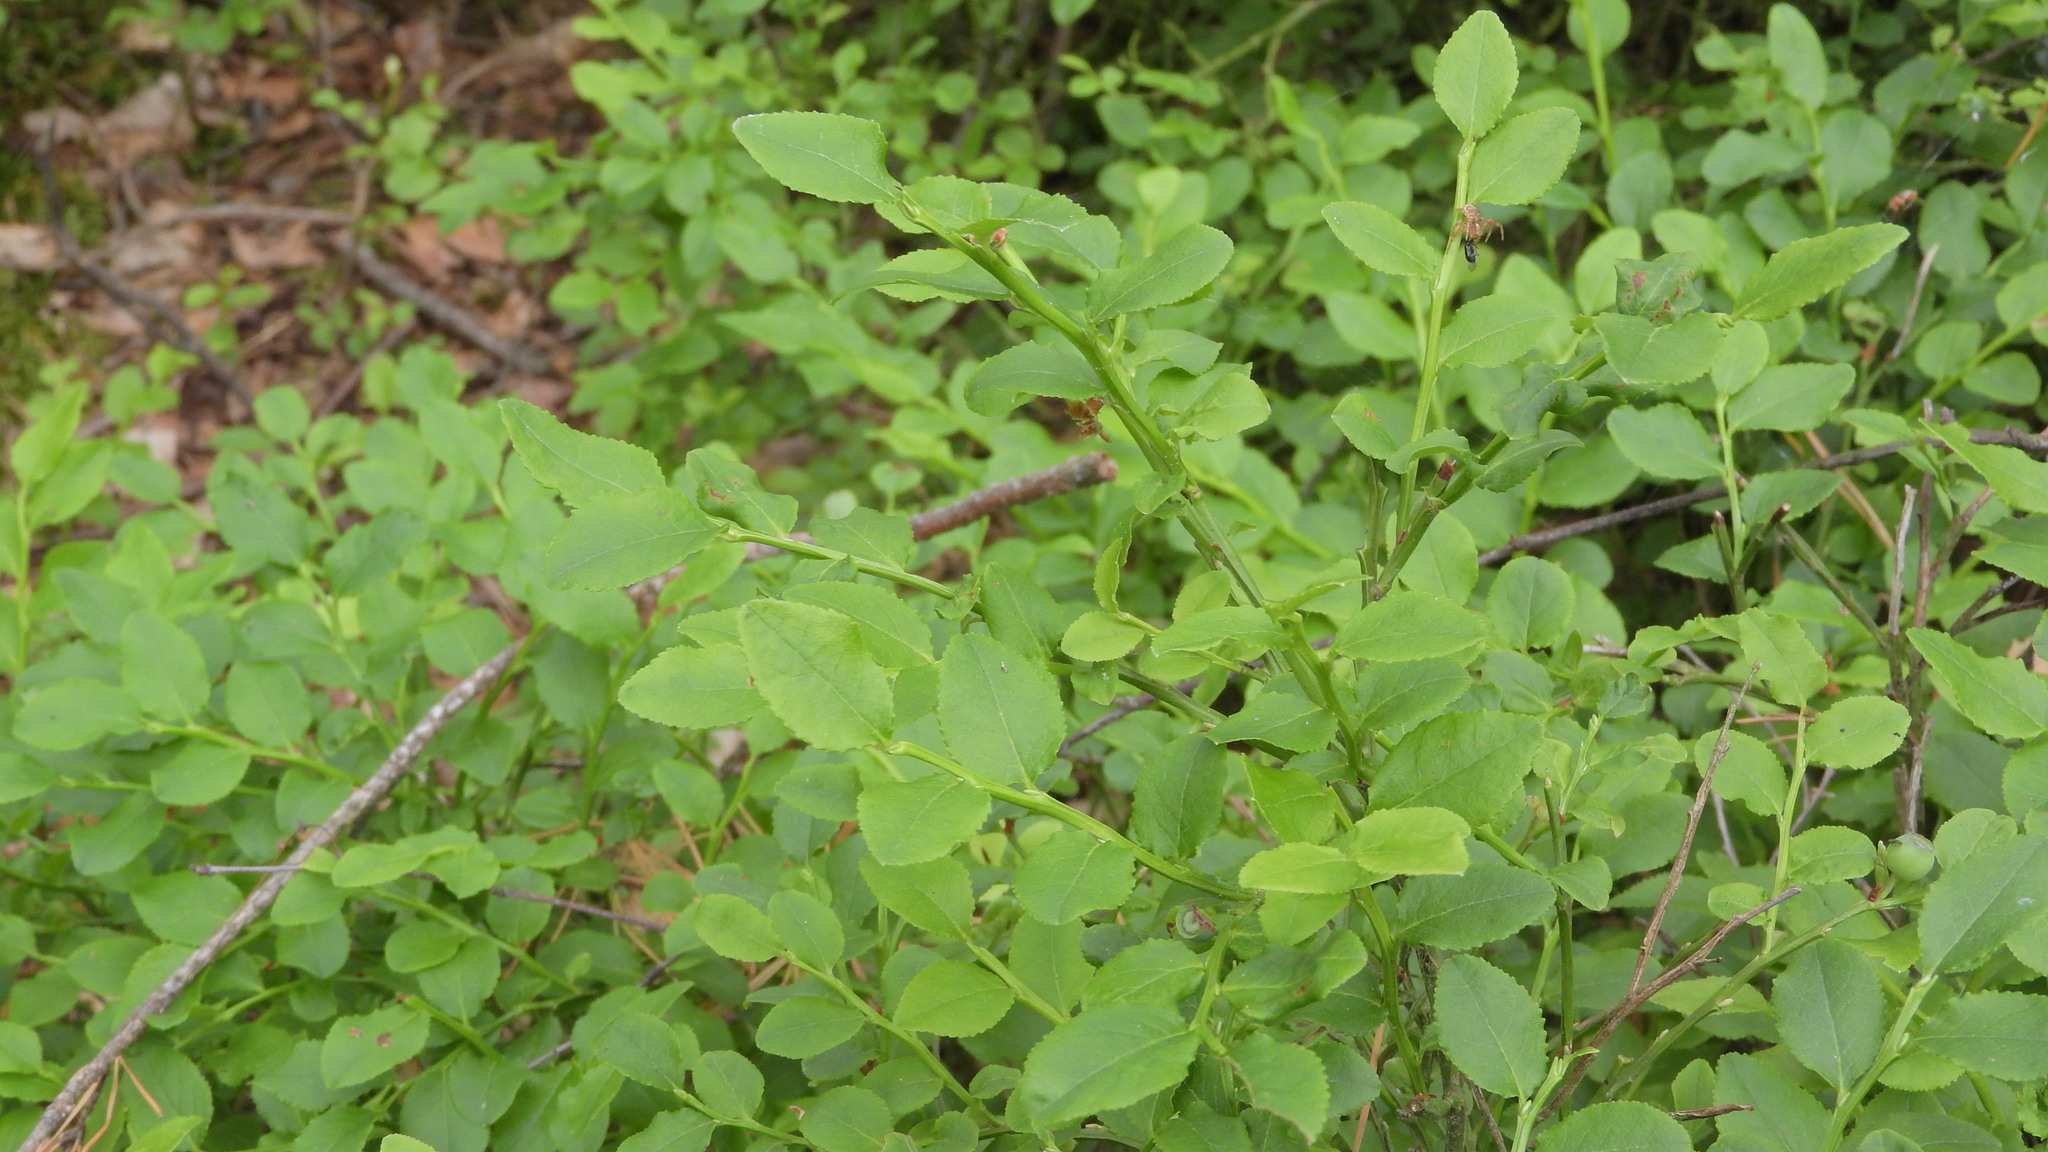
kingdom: Plantae
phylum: Tracheophyta
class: Magnoliopsida
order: Ericales
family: Ericaceae
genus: Vaccinium
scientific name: Vaccinium myrtillus
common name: Bilberry
